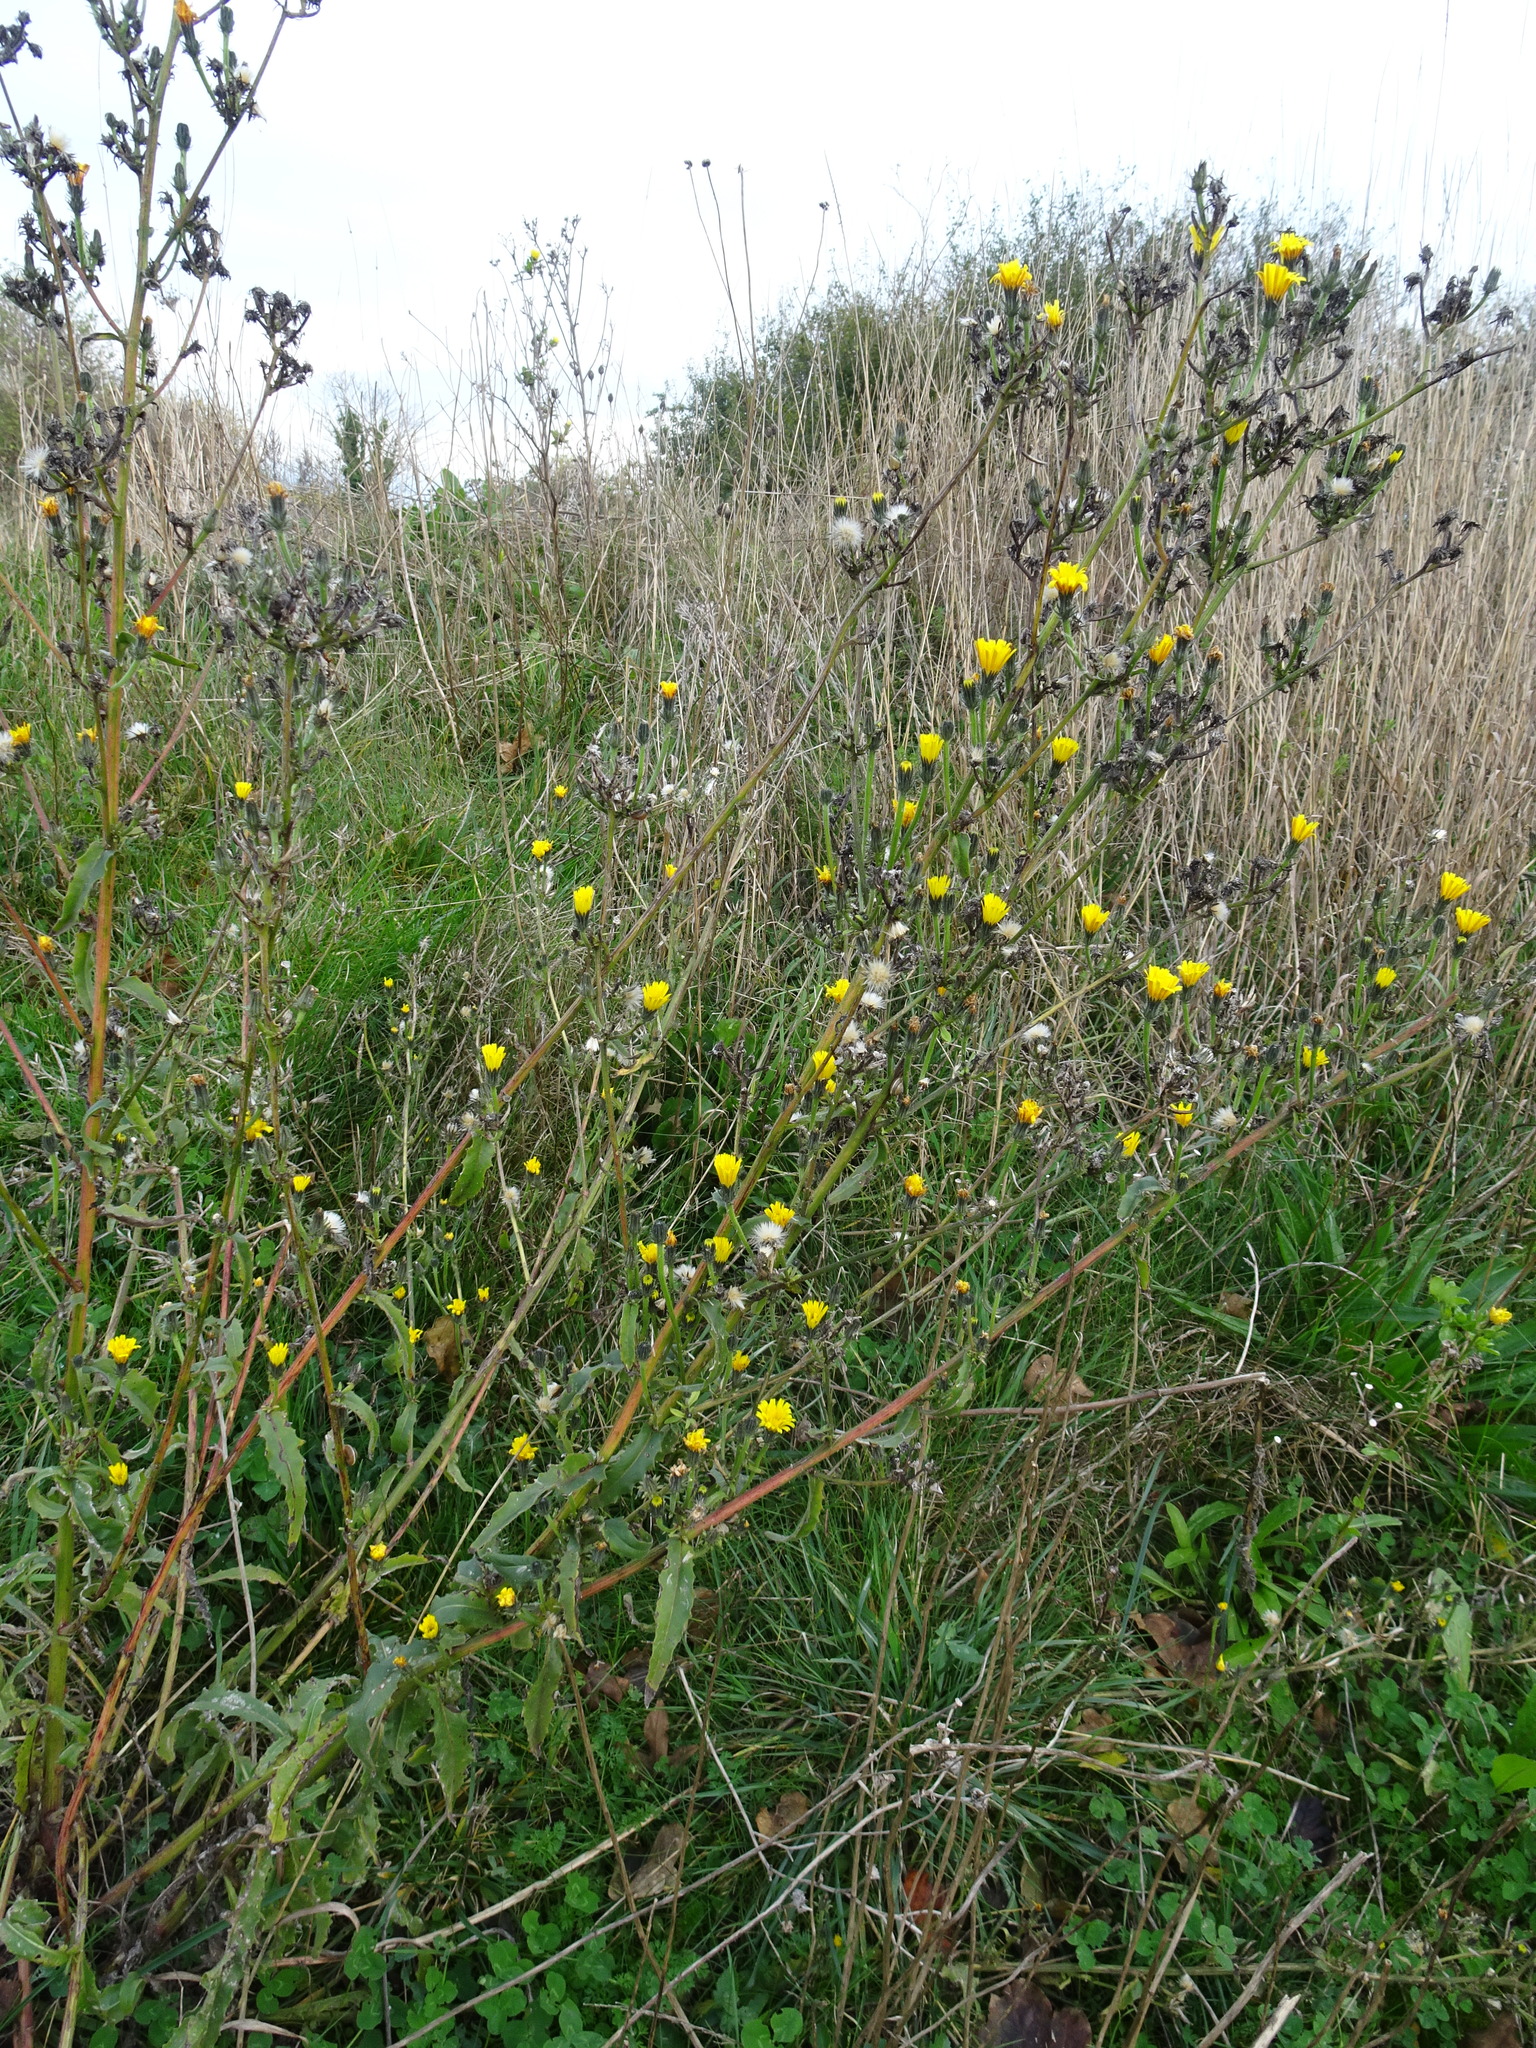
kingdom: Plantae
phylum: Tracheophyta
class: Magnoliopsida
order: Asterales
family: Asteraceae
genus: Picris
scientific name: Picris hieracioides
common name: Hawkweed oxtongue
